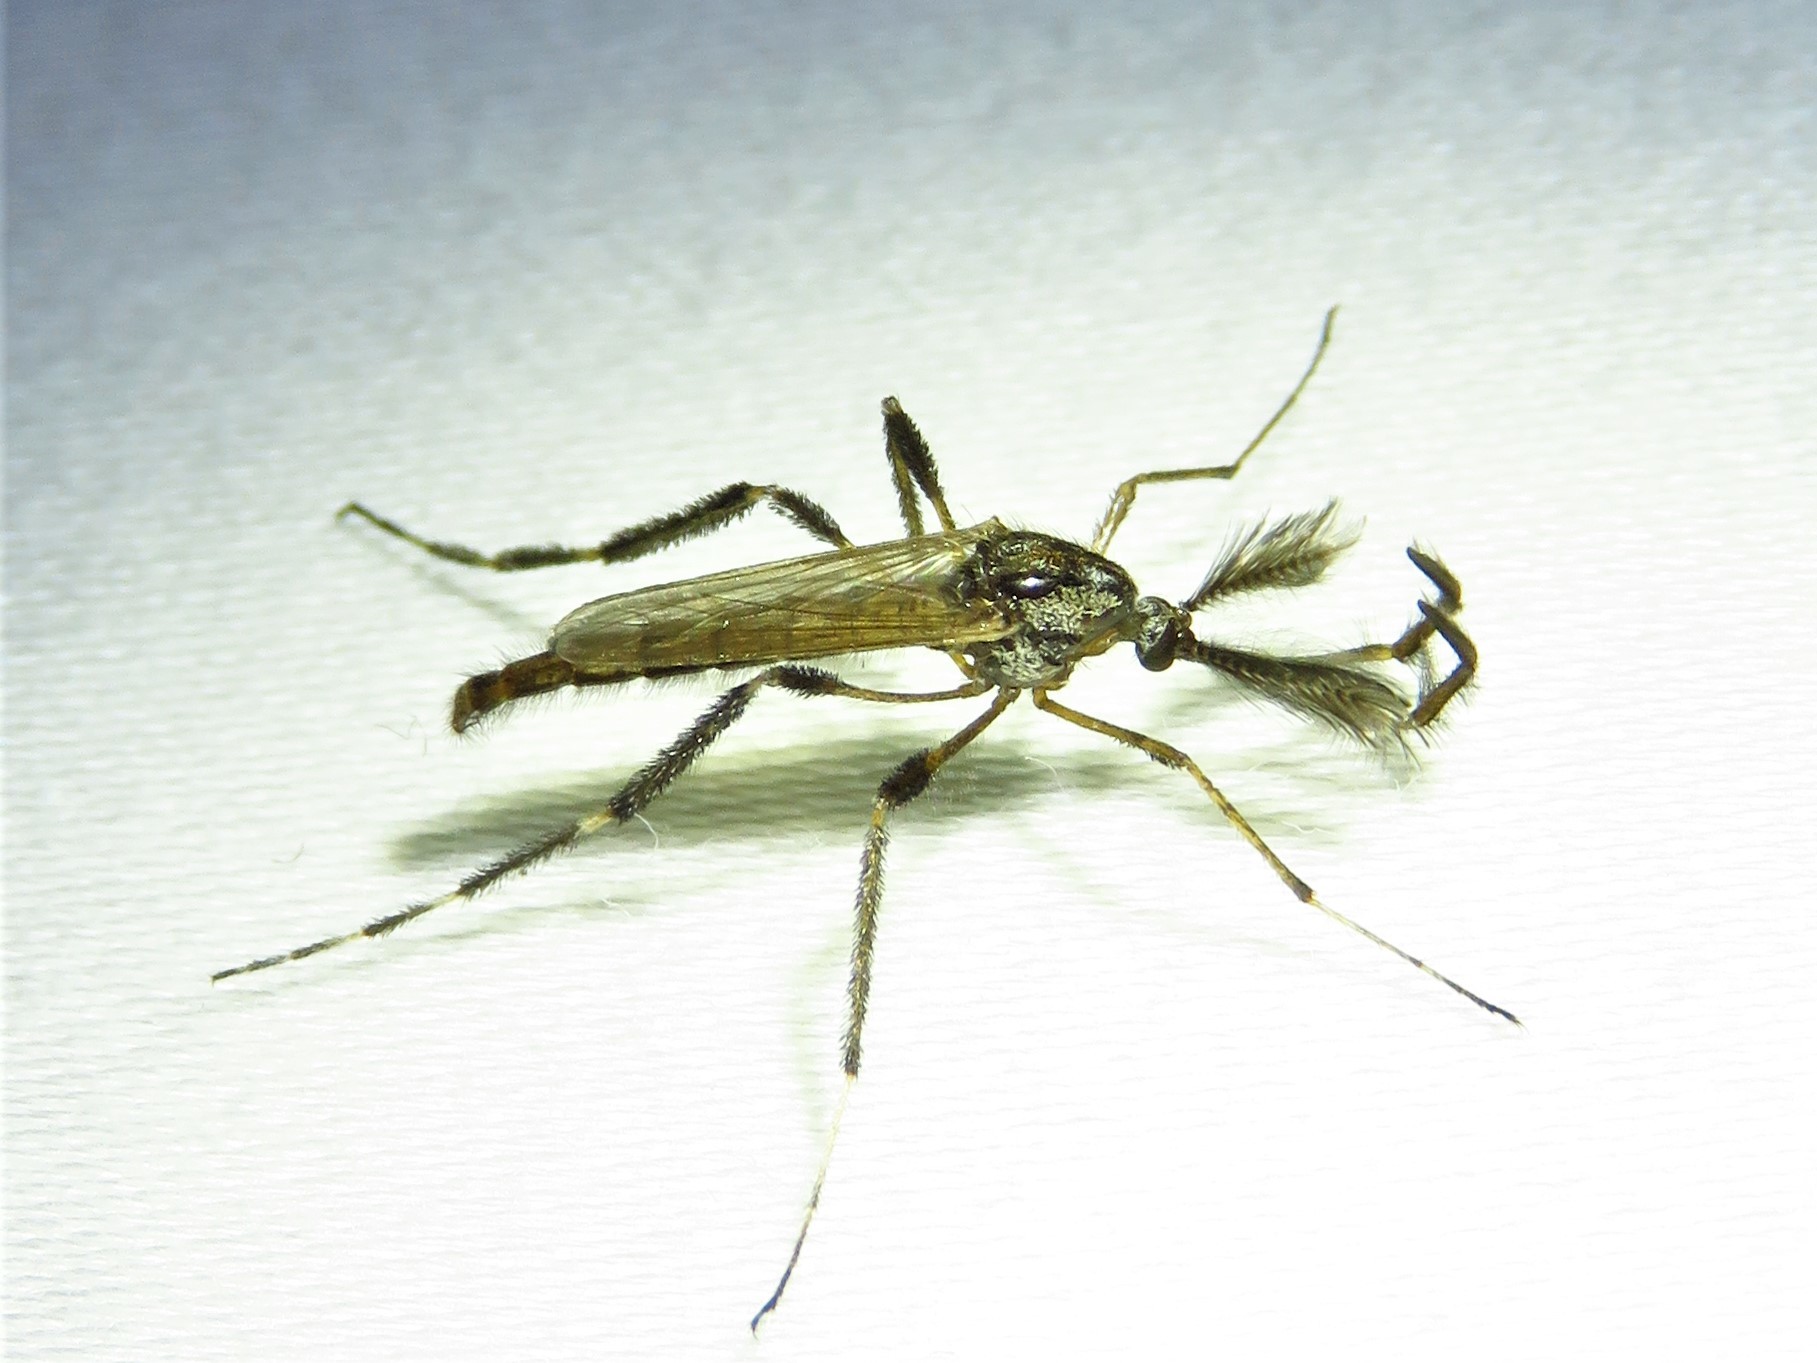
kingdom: Animalia
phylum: Arthropoda
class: Insecta
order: Diptera
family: Culicidae
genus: Psorophora
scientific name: Psorophora ciliata
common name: Gallinipper
